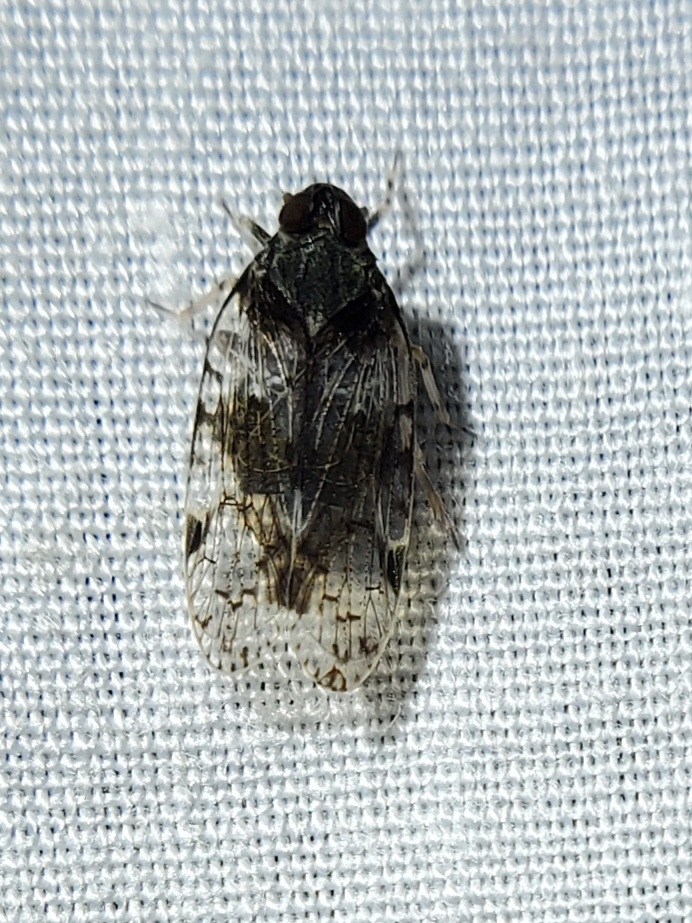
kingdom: Animalia
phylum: Arthropoda
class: Insecta
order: Hemiptera
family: Cixiidae
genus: Melanoliarus
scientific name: Melanoliarus placitus
